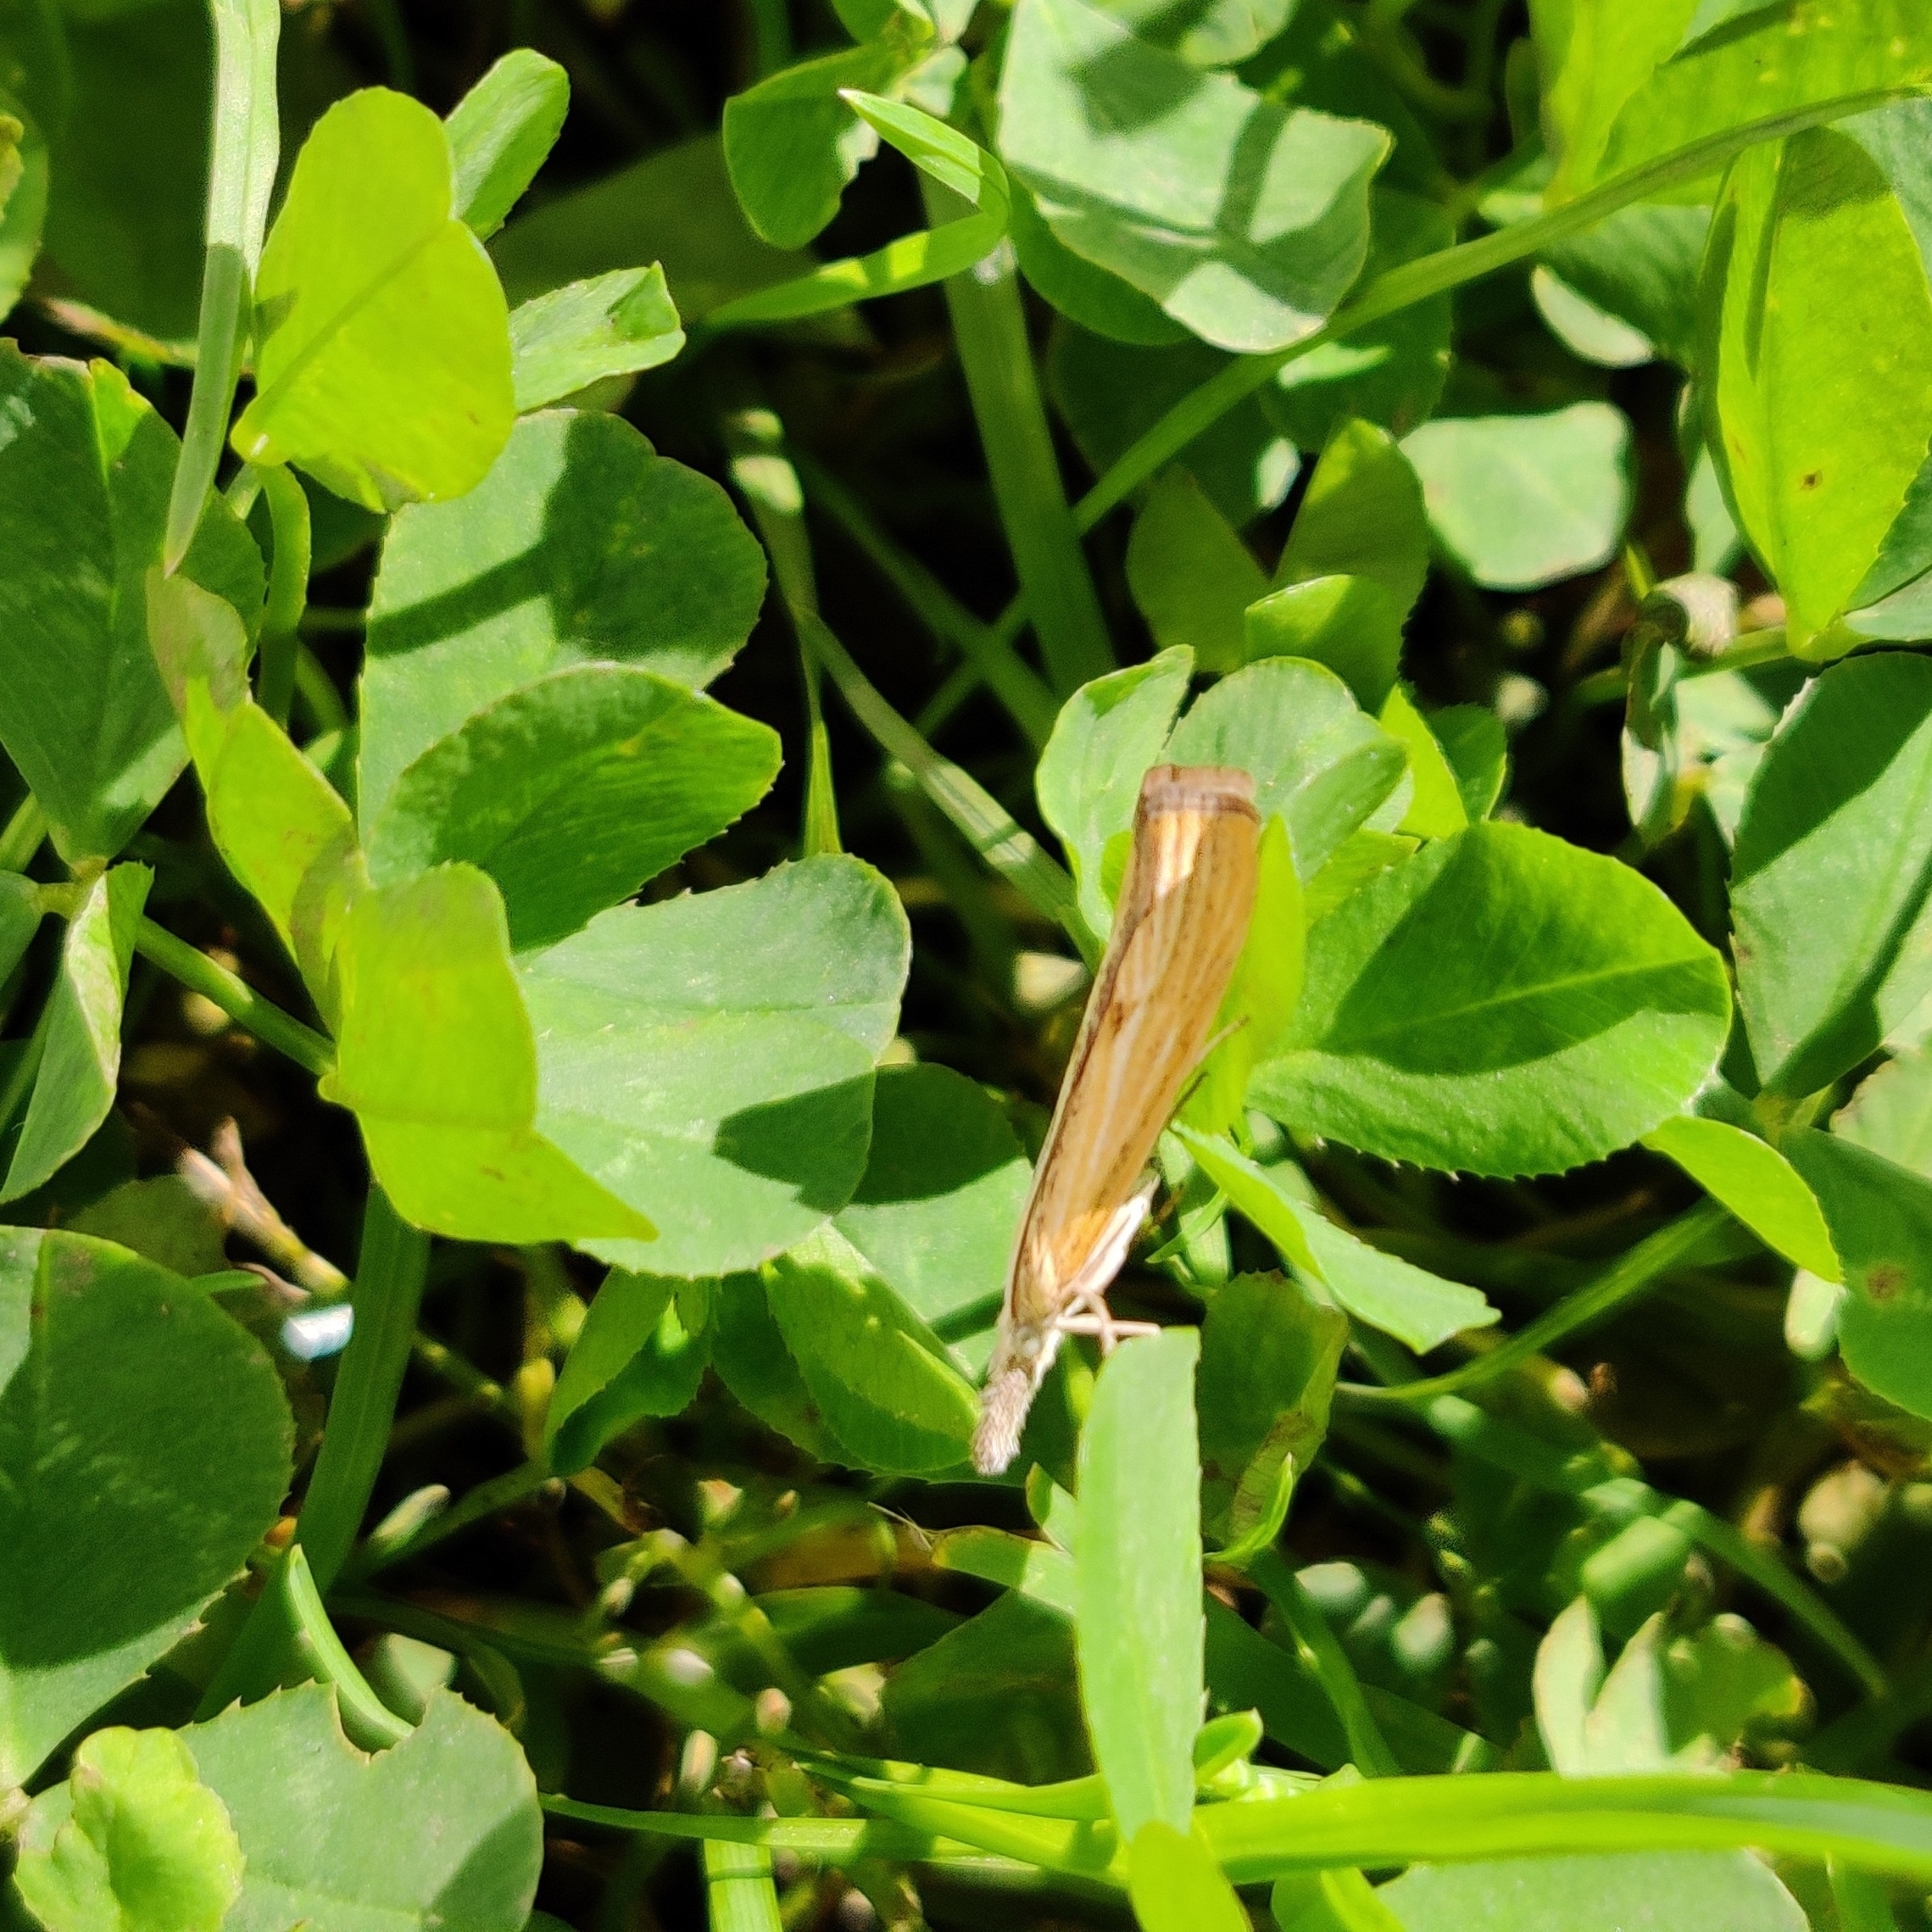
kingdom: Animalia
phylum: Arthropoda
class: Insecta
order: Lepidoptera
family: Crambidae
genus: Agriphila
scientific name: Agriphila inquinatella
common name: Barred grass-veneer
